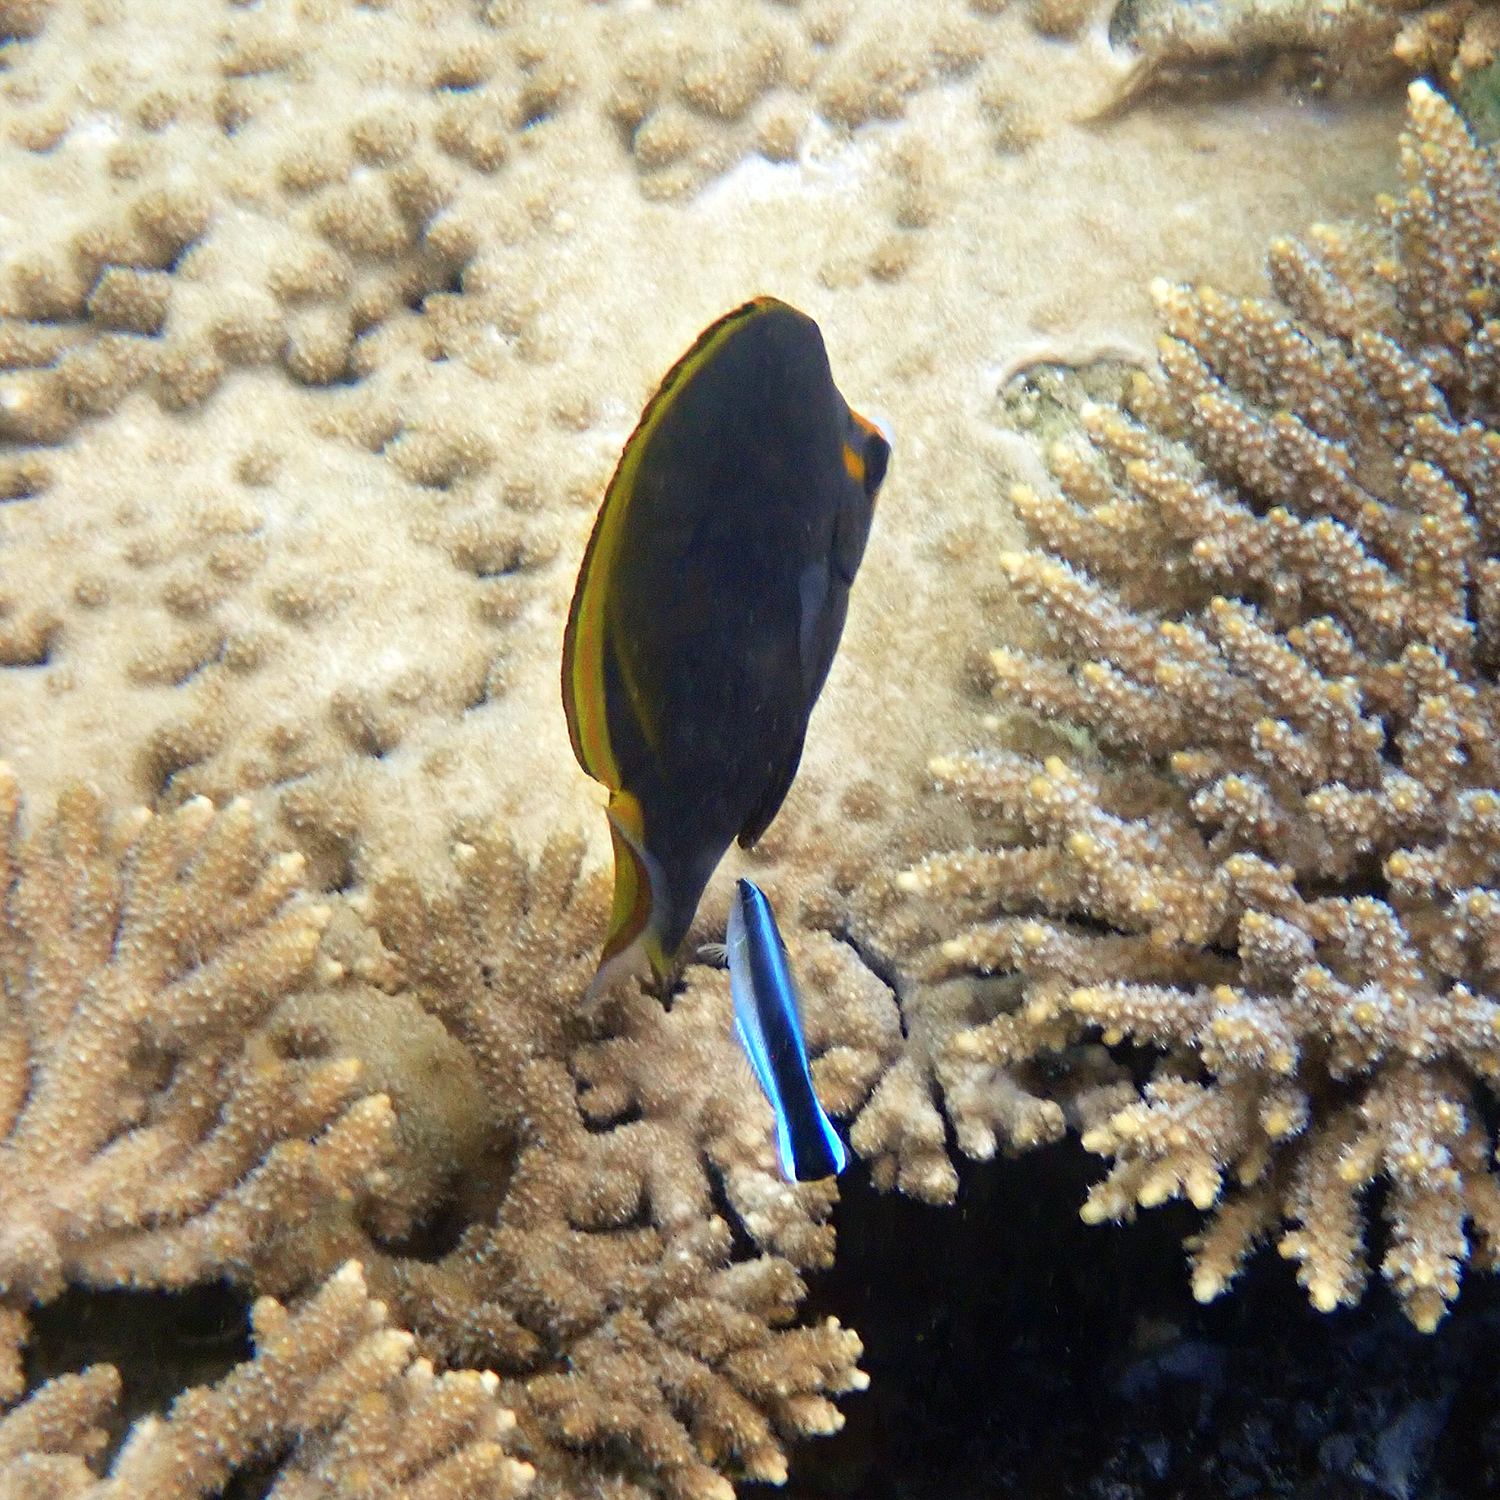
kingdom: Animalia
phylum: Chordata
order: Perciformes
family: Labridae
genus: Labroides
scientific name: Labroides dimidiatus
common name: Blue diesel wrasse
